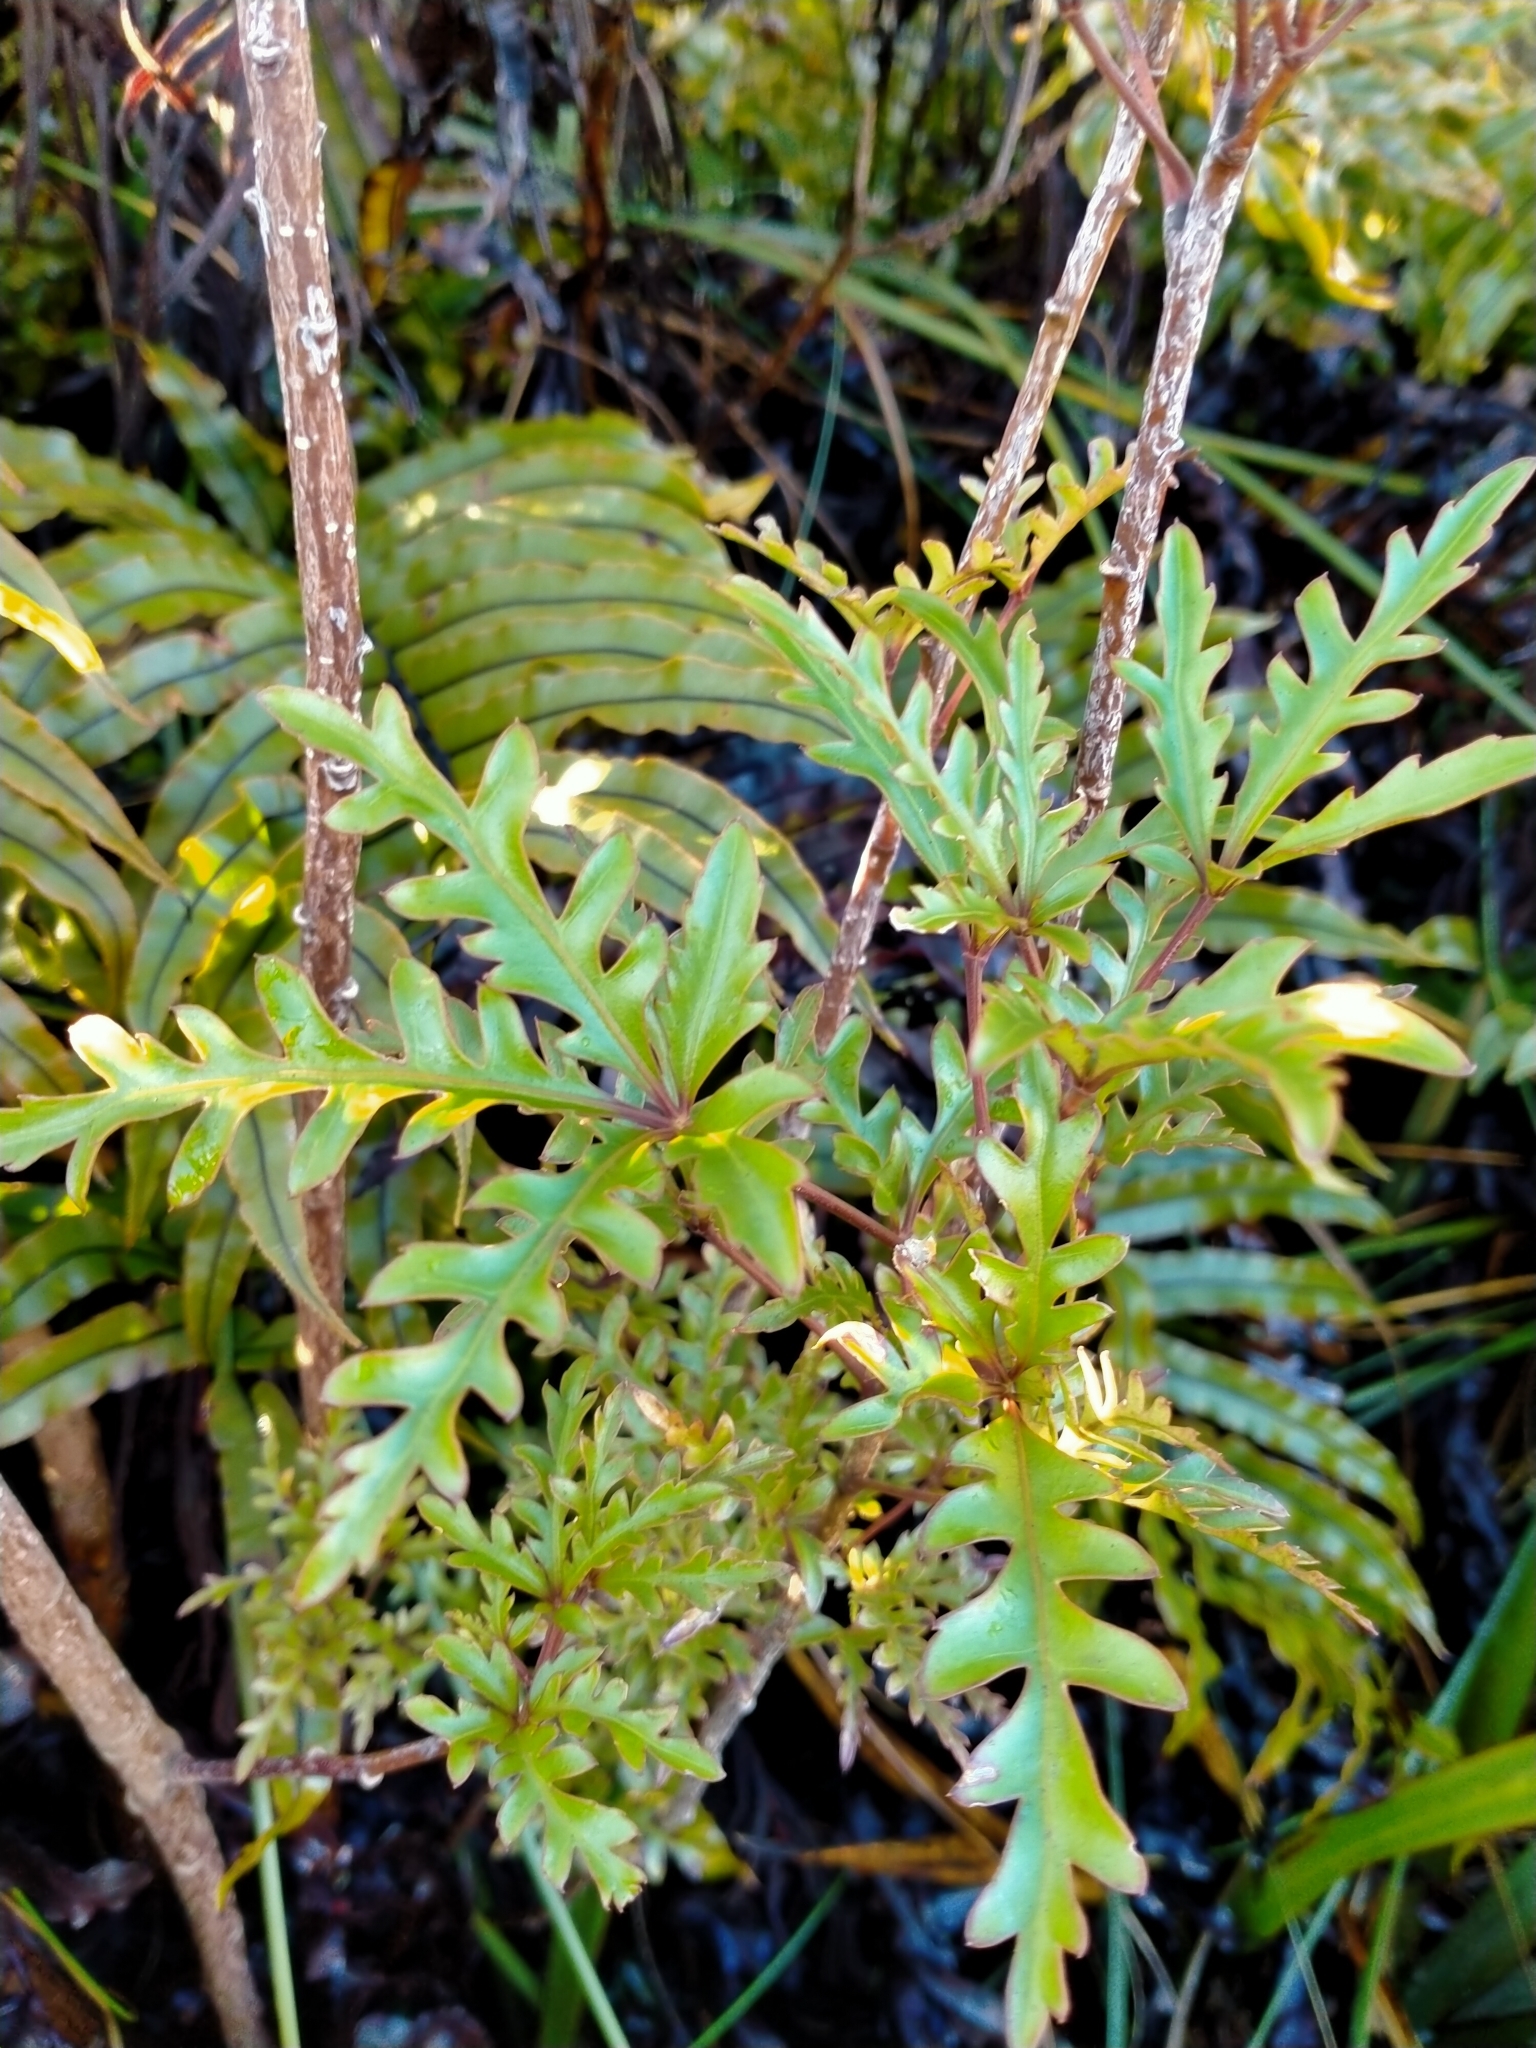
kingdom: Plantae
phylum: Tracheophyta
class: Magnoliopsida
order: Apiales
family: Araliaceae
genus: Raukaua
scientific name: Raukaua simplex
